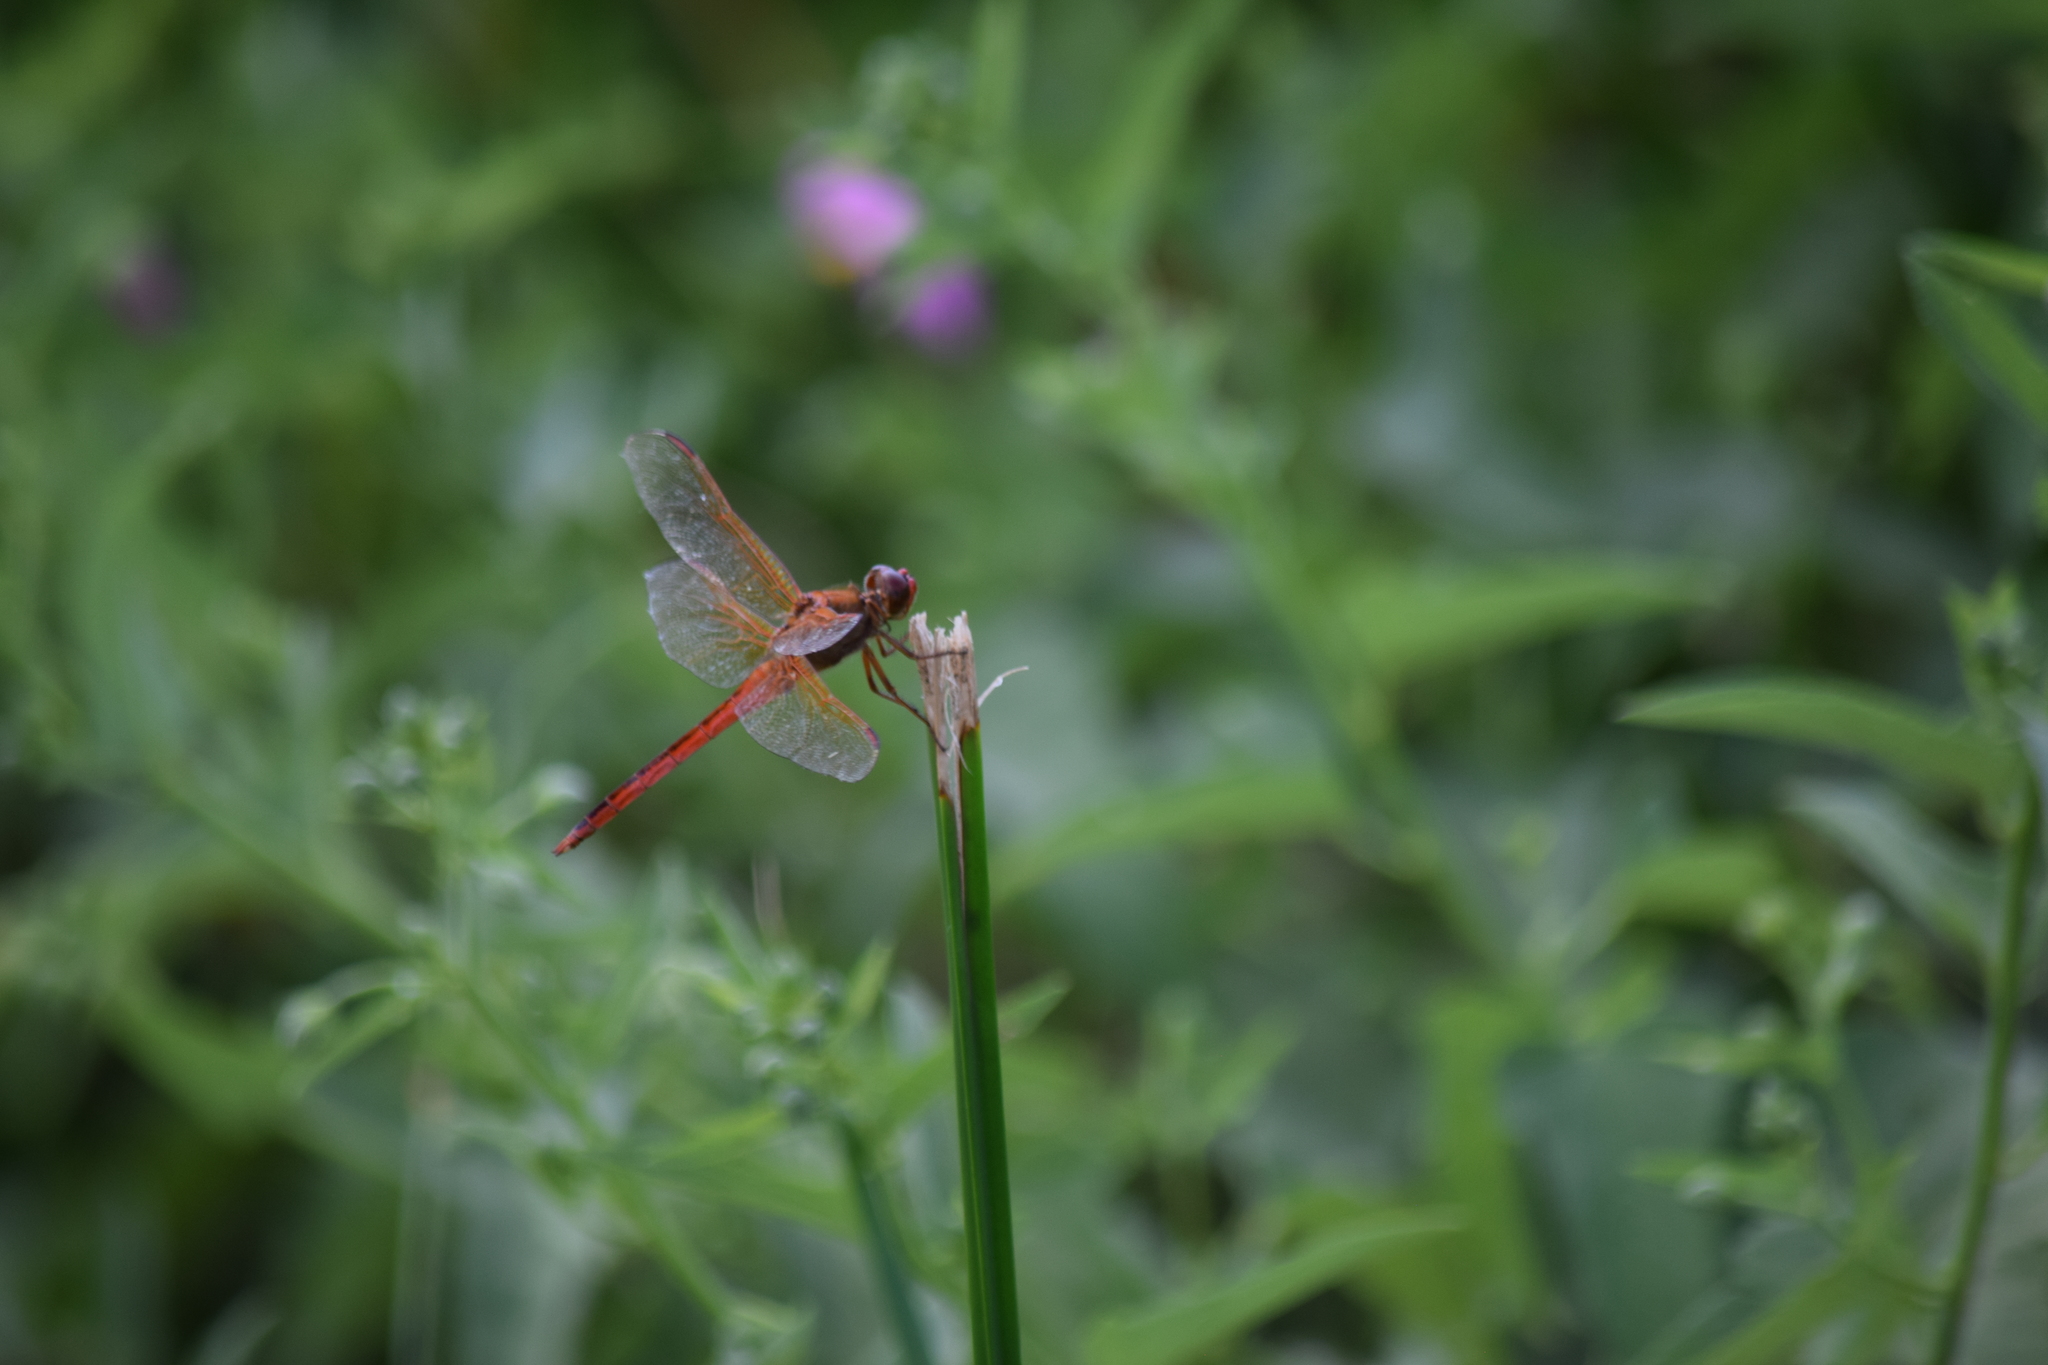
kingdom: Animalia
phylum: Arthropoda
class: Insecta
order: Odonata
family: Libellulidae
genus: Libellula
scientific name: Libellula needhami
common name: Needham's skimmer
